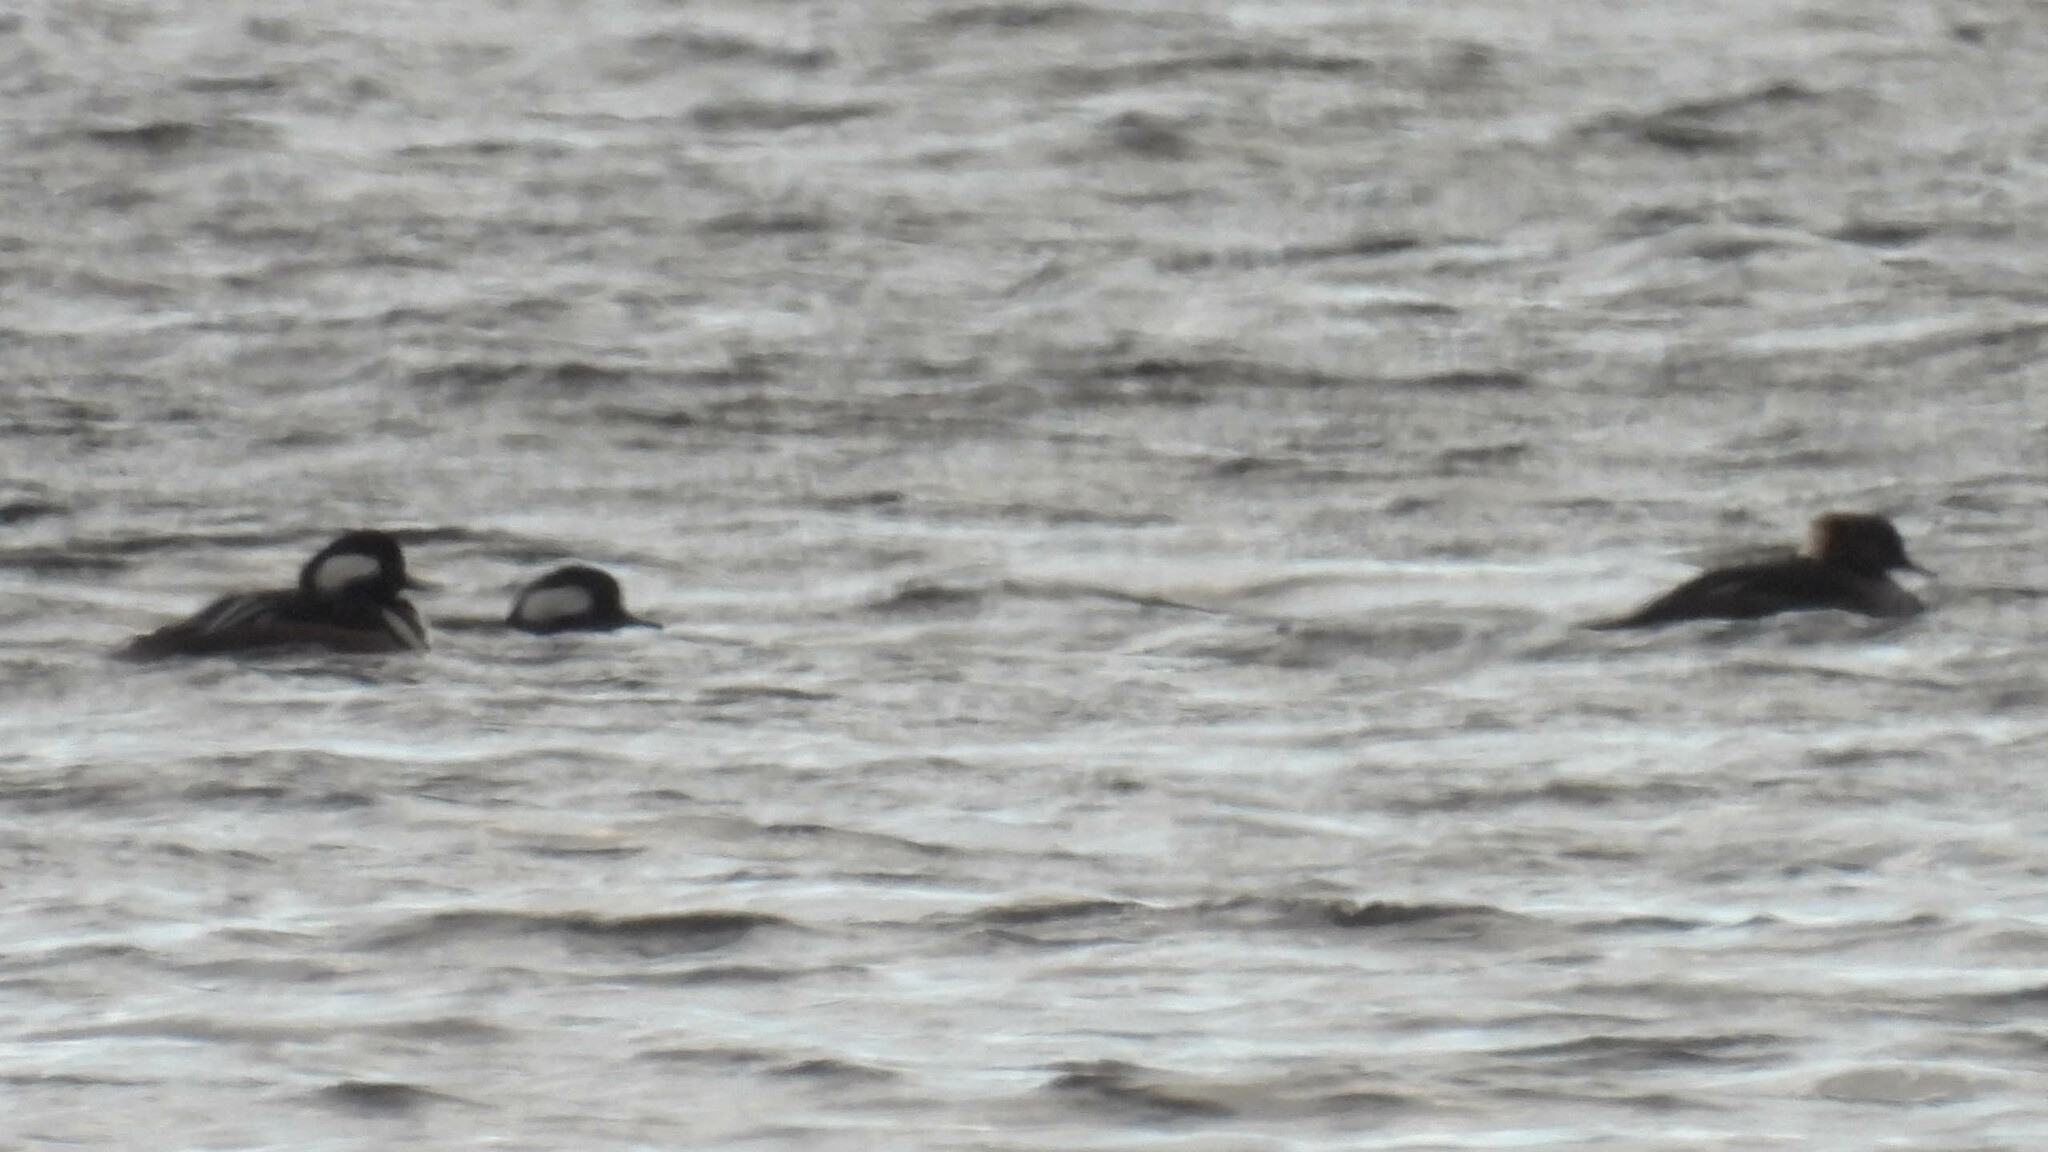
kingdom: Animalia
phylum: Chordata
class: Aves
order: Anseriformes
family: Anatidae
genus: Lophodytes
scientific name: Lophodytes cucullatus
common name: Hooded merganser
